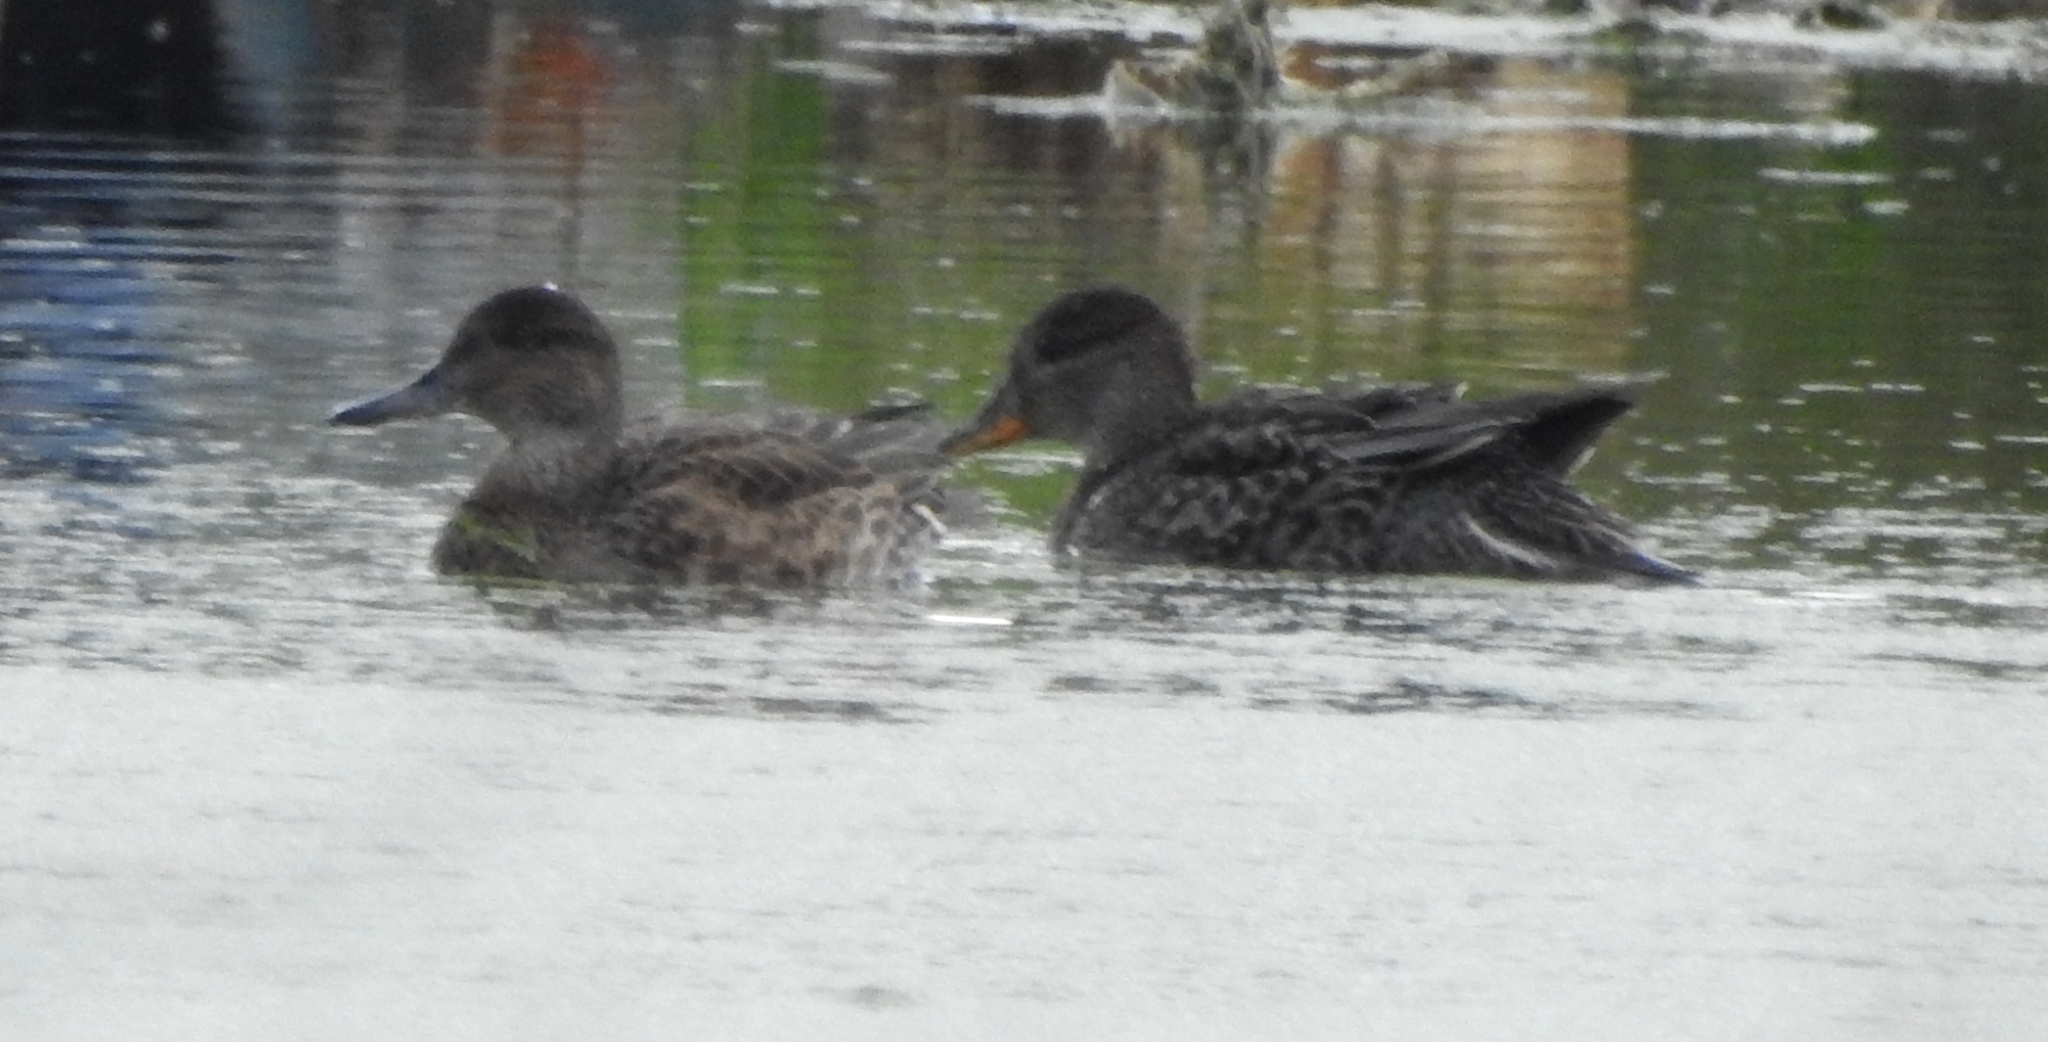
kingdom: Animalia
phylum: Chordata
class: Aves
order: Anseriformes
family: Anatidae
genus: Anas
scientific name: Anas crecca
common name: Eurasian teal
